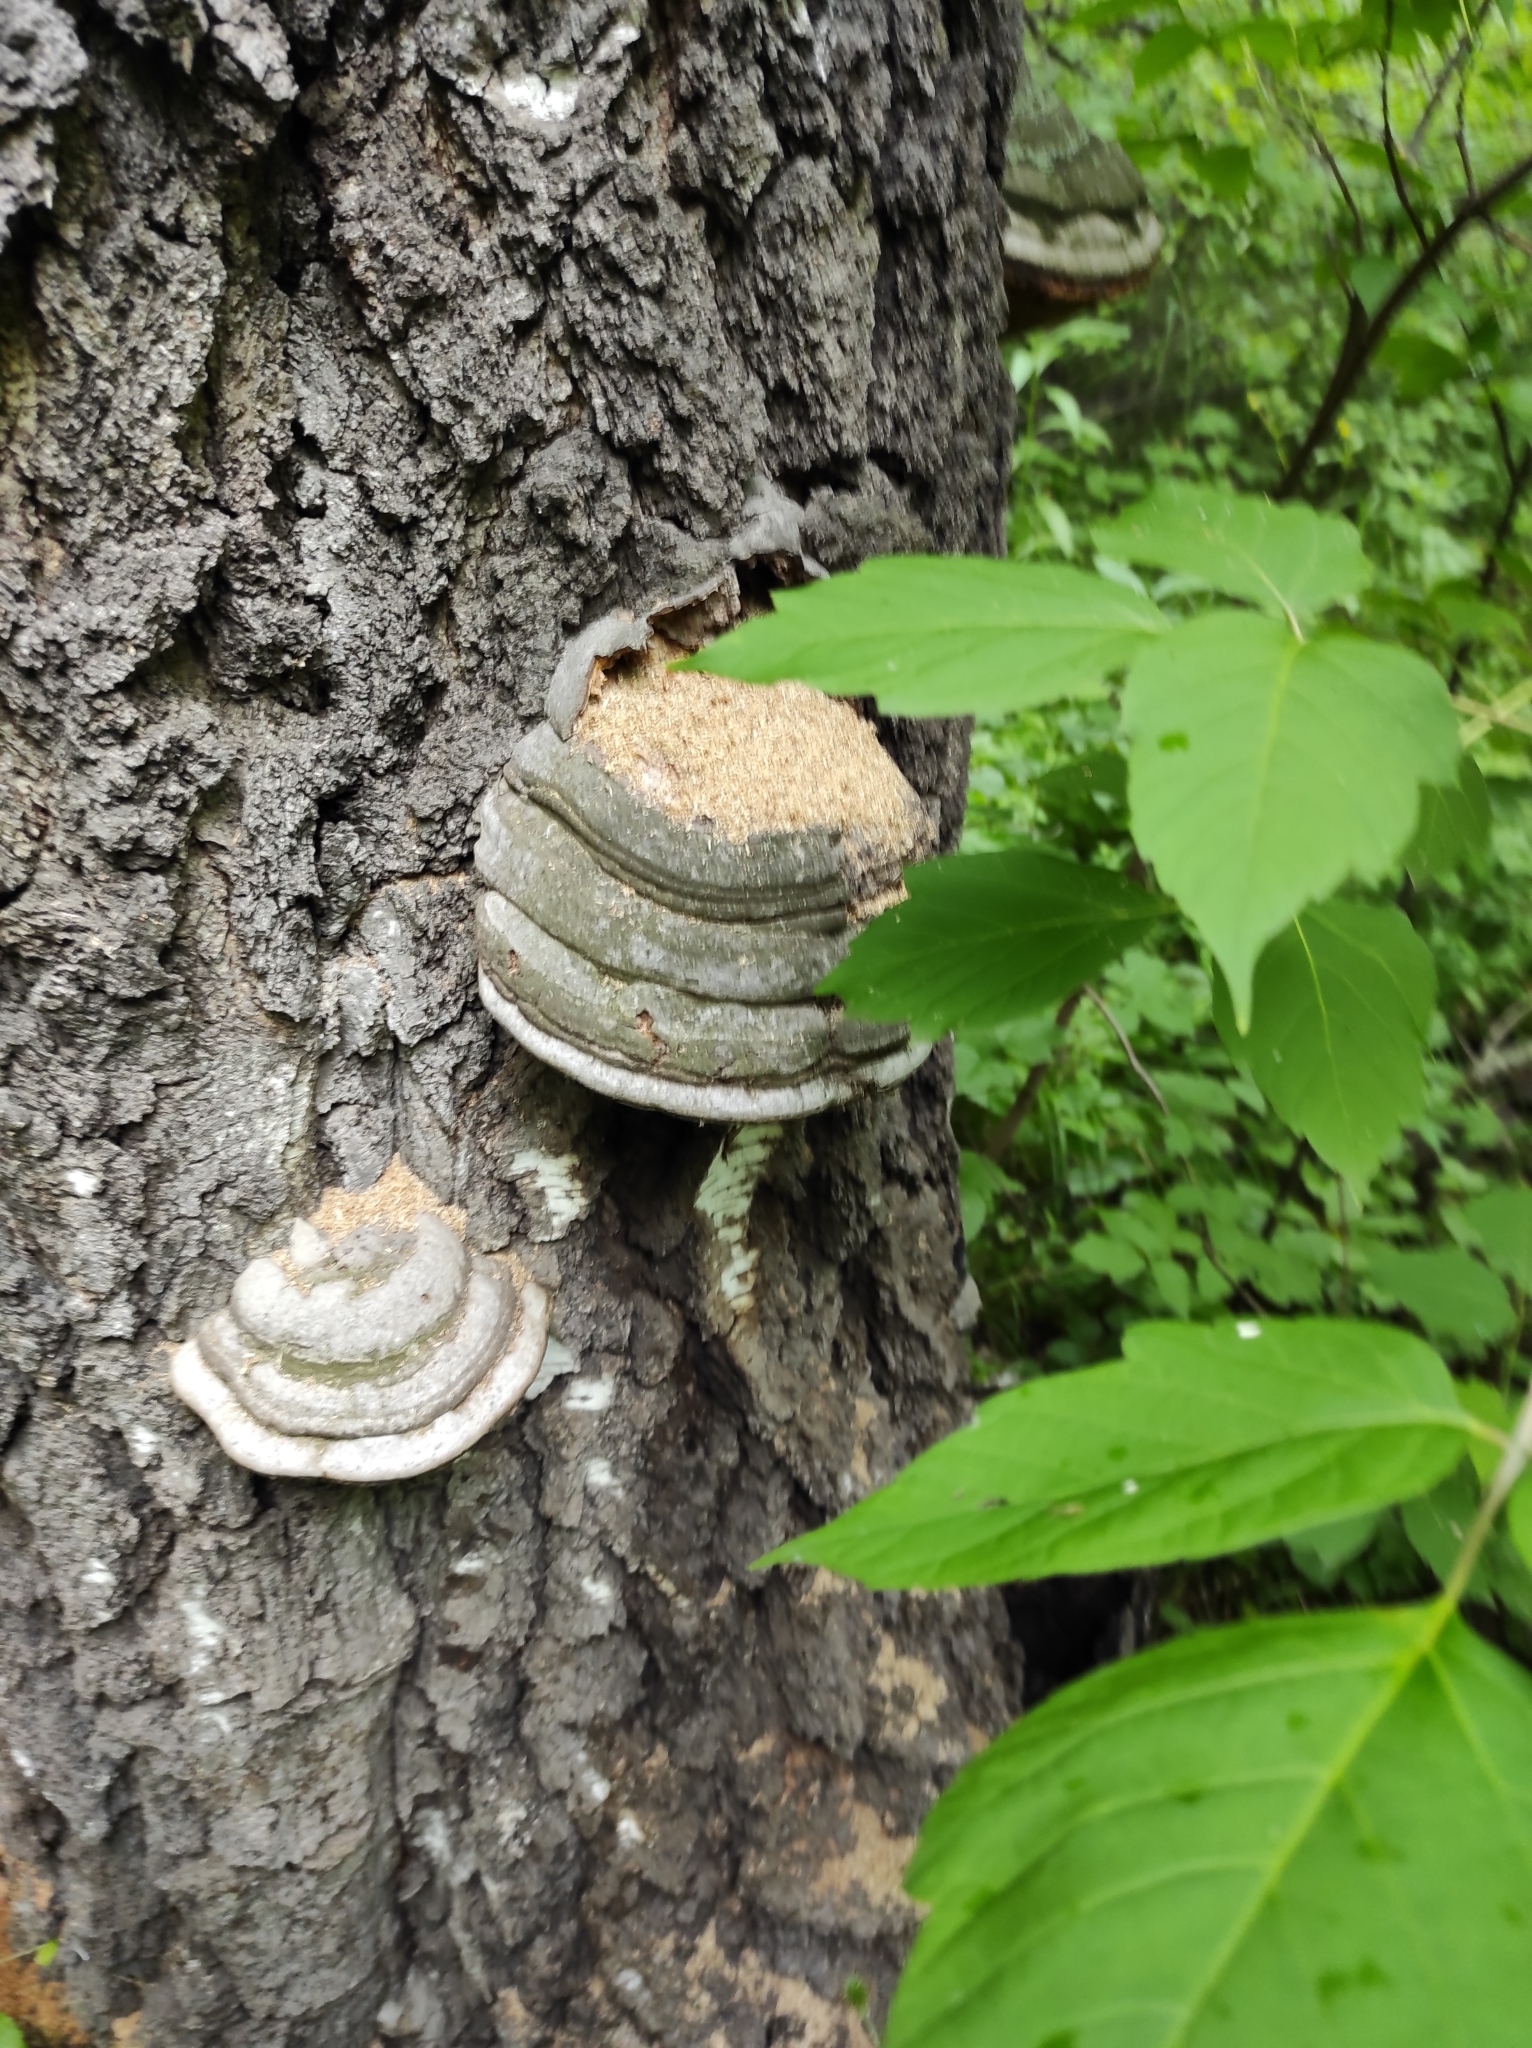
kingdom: Fungi
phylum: Basidiomycota
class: Agaricomycetes
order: Polyporales
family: Polyporaceae
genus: Fomes
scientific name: Fomes fomentarius
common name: Hoof fungus
